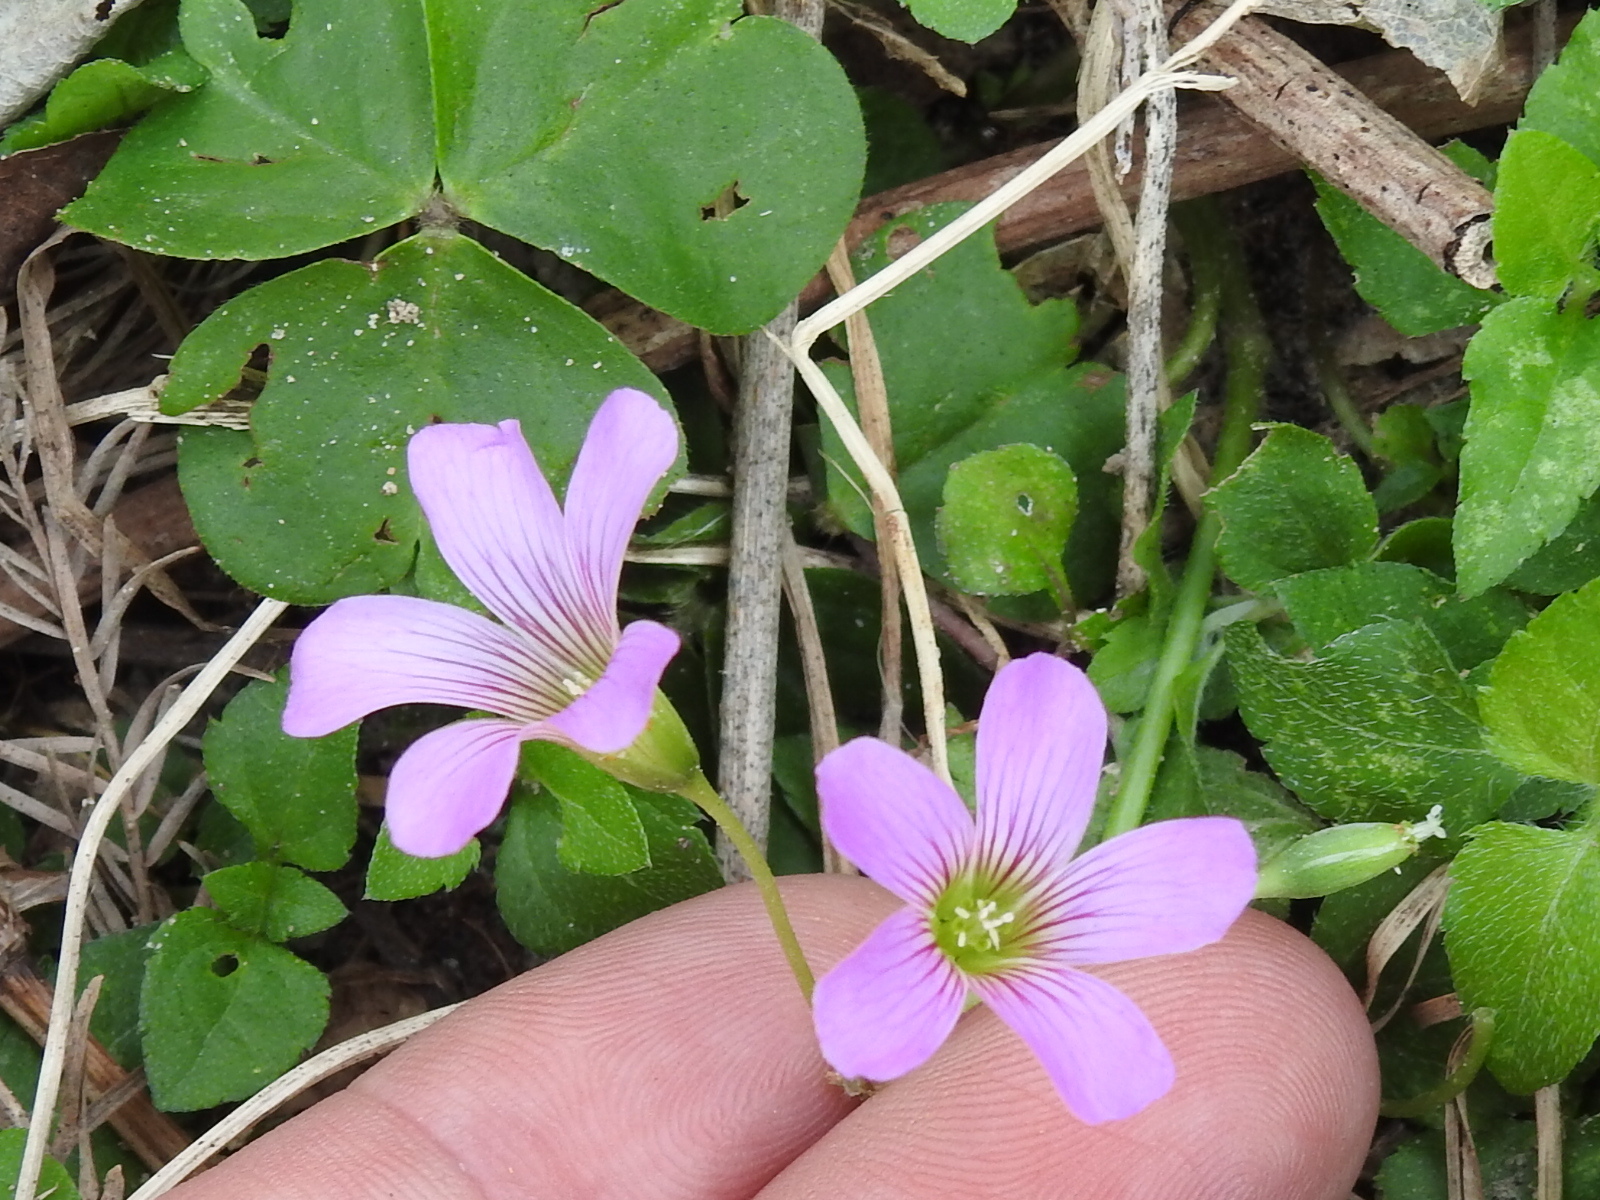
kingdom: Plantae
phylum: Tracheophyta
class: Magnoliopsida
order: Oxalidales
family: Oxalidaceae
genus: Oxalis
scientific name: Oxalis debilis
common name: Large-flowered pink-sorrel
